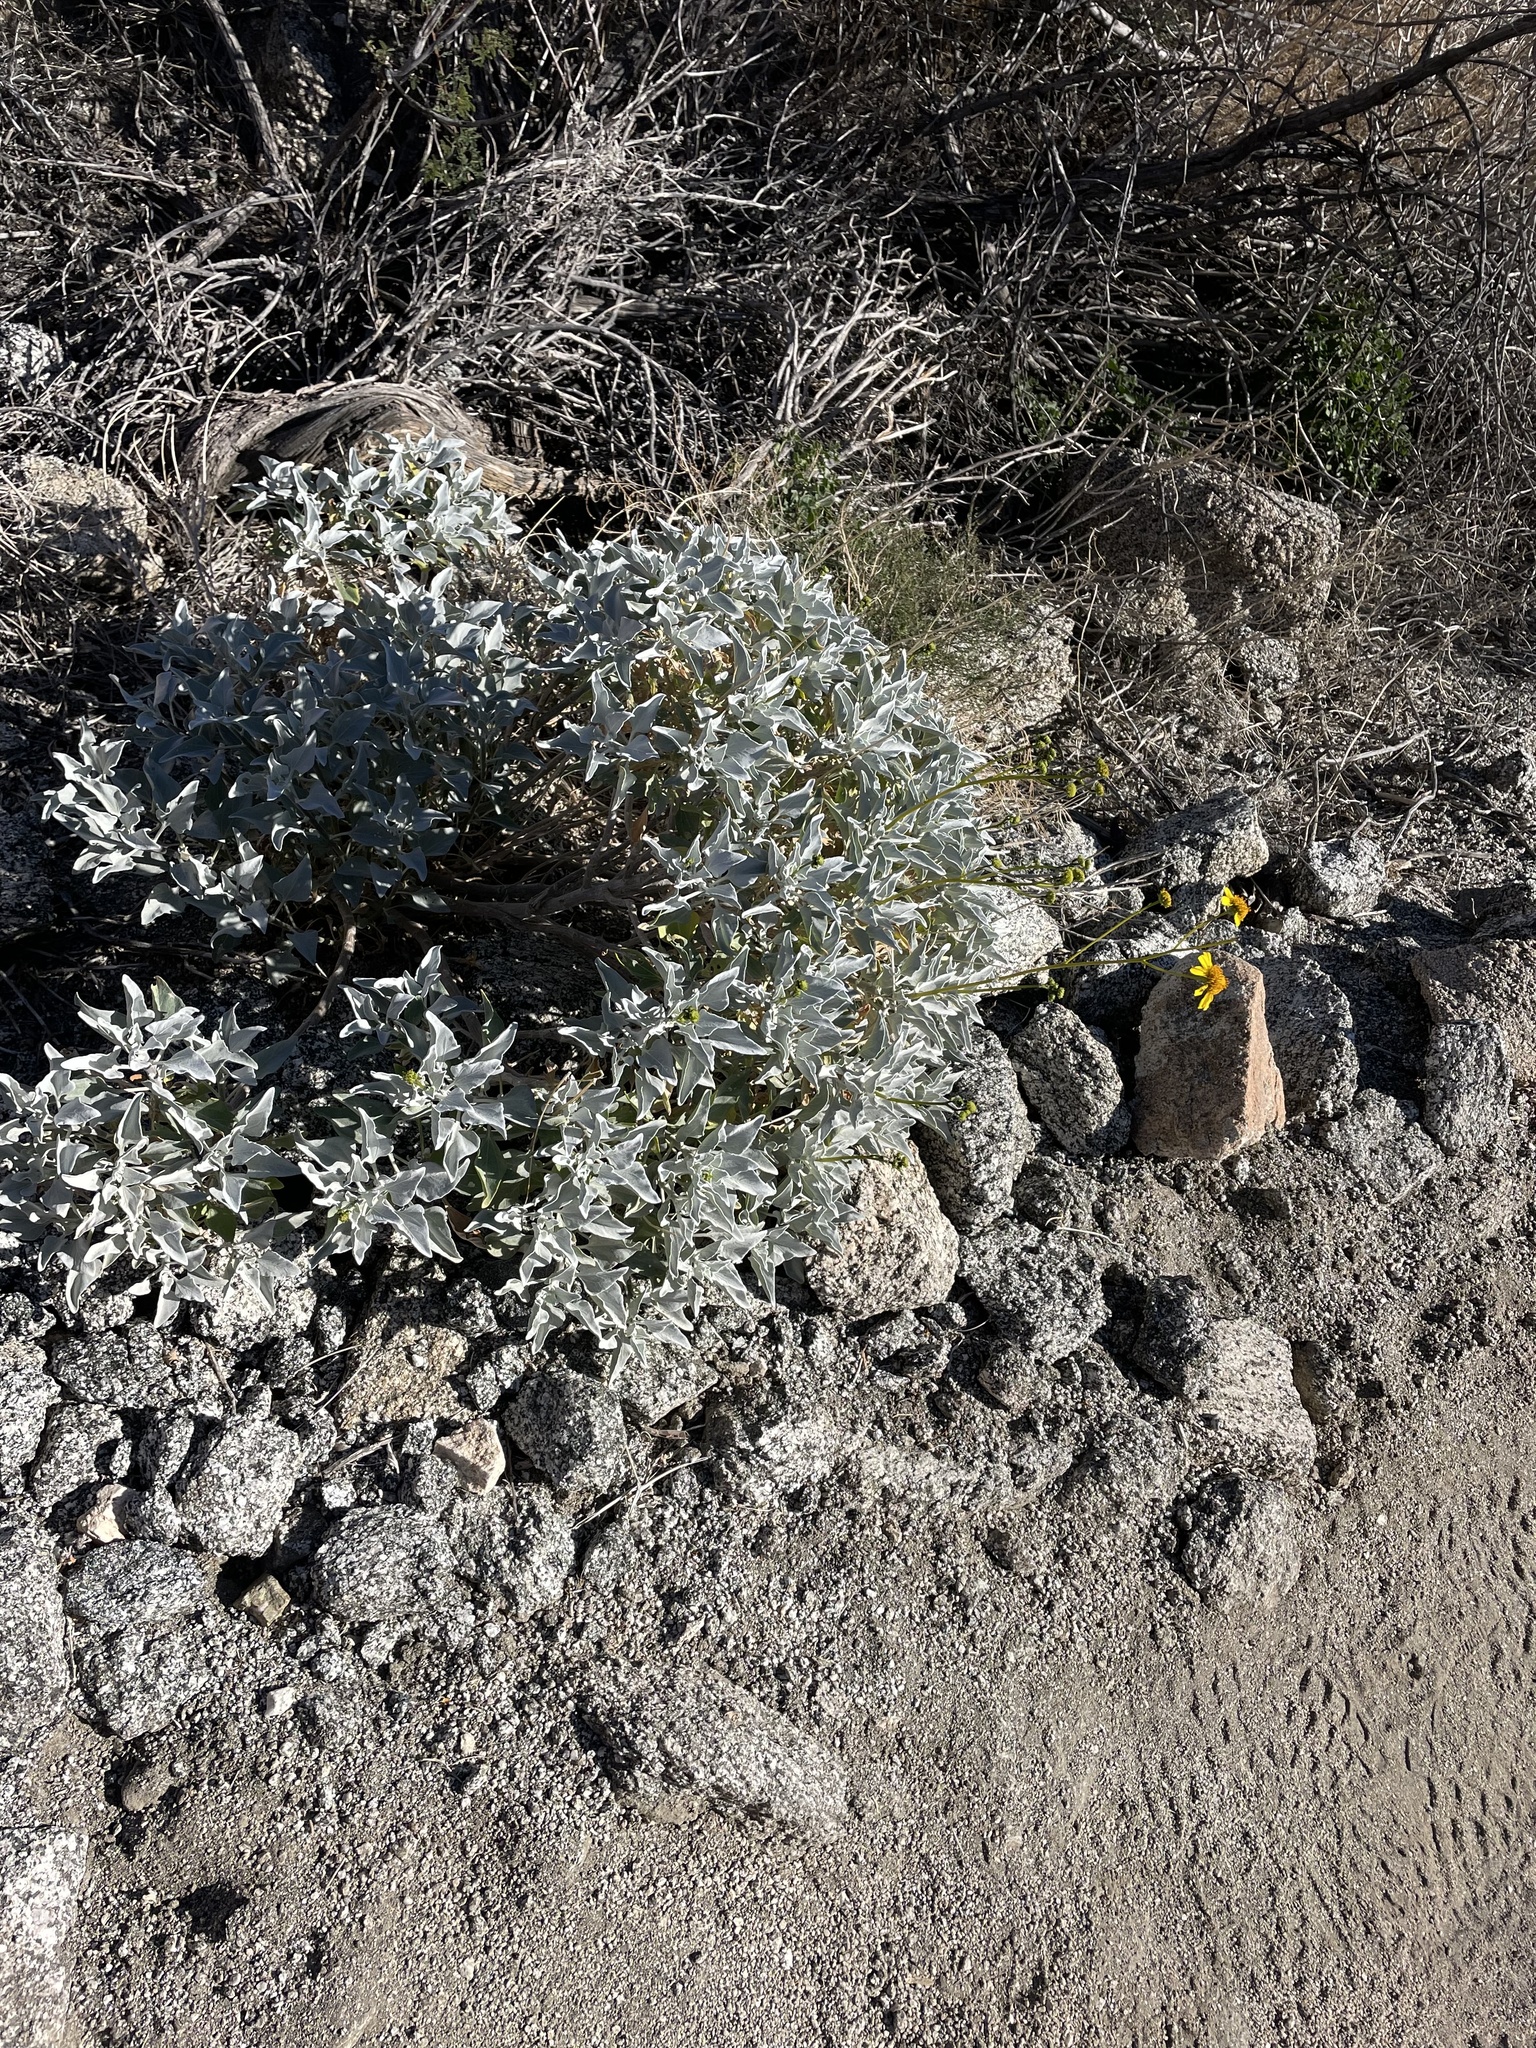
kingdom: Plantae
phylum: Tracheophyta
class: Magnoliopsida
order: Asterales
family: Asteraceae
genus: Encelia
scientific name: Encelia farinosa
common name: Brittlebush
